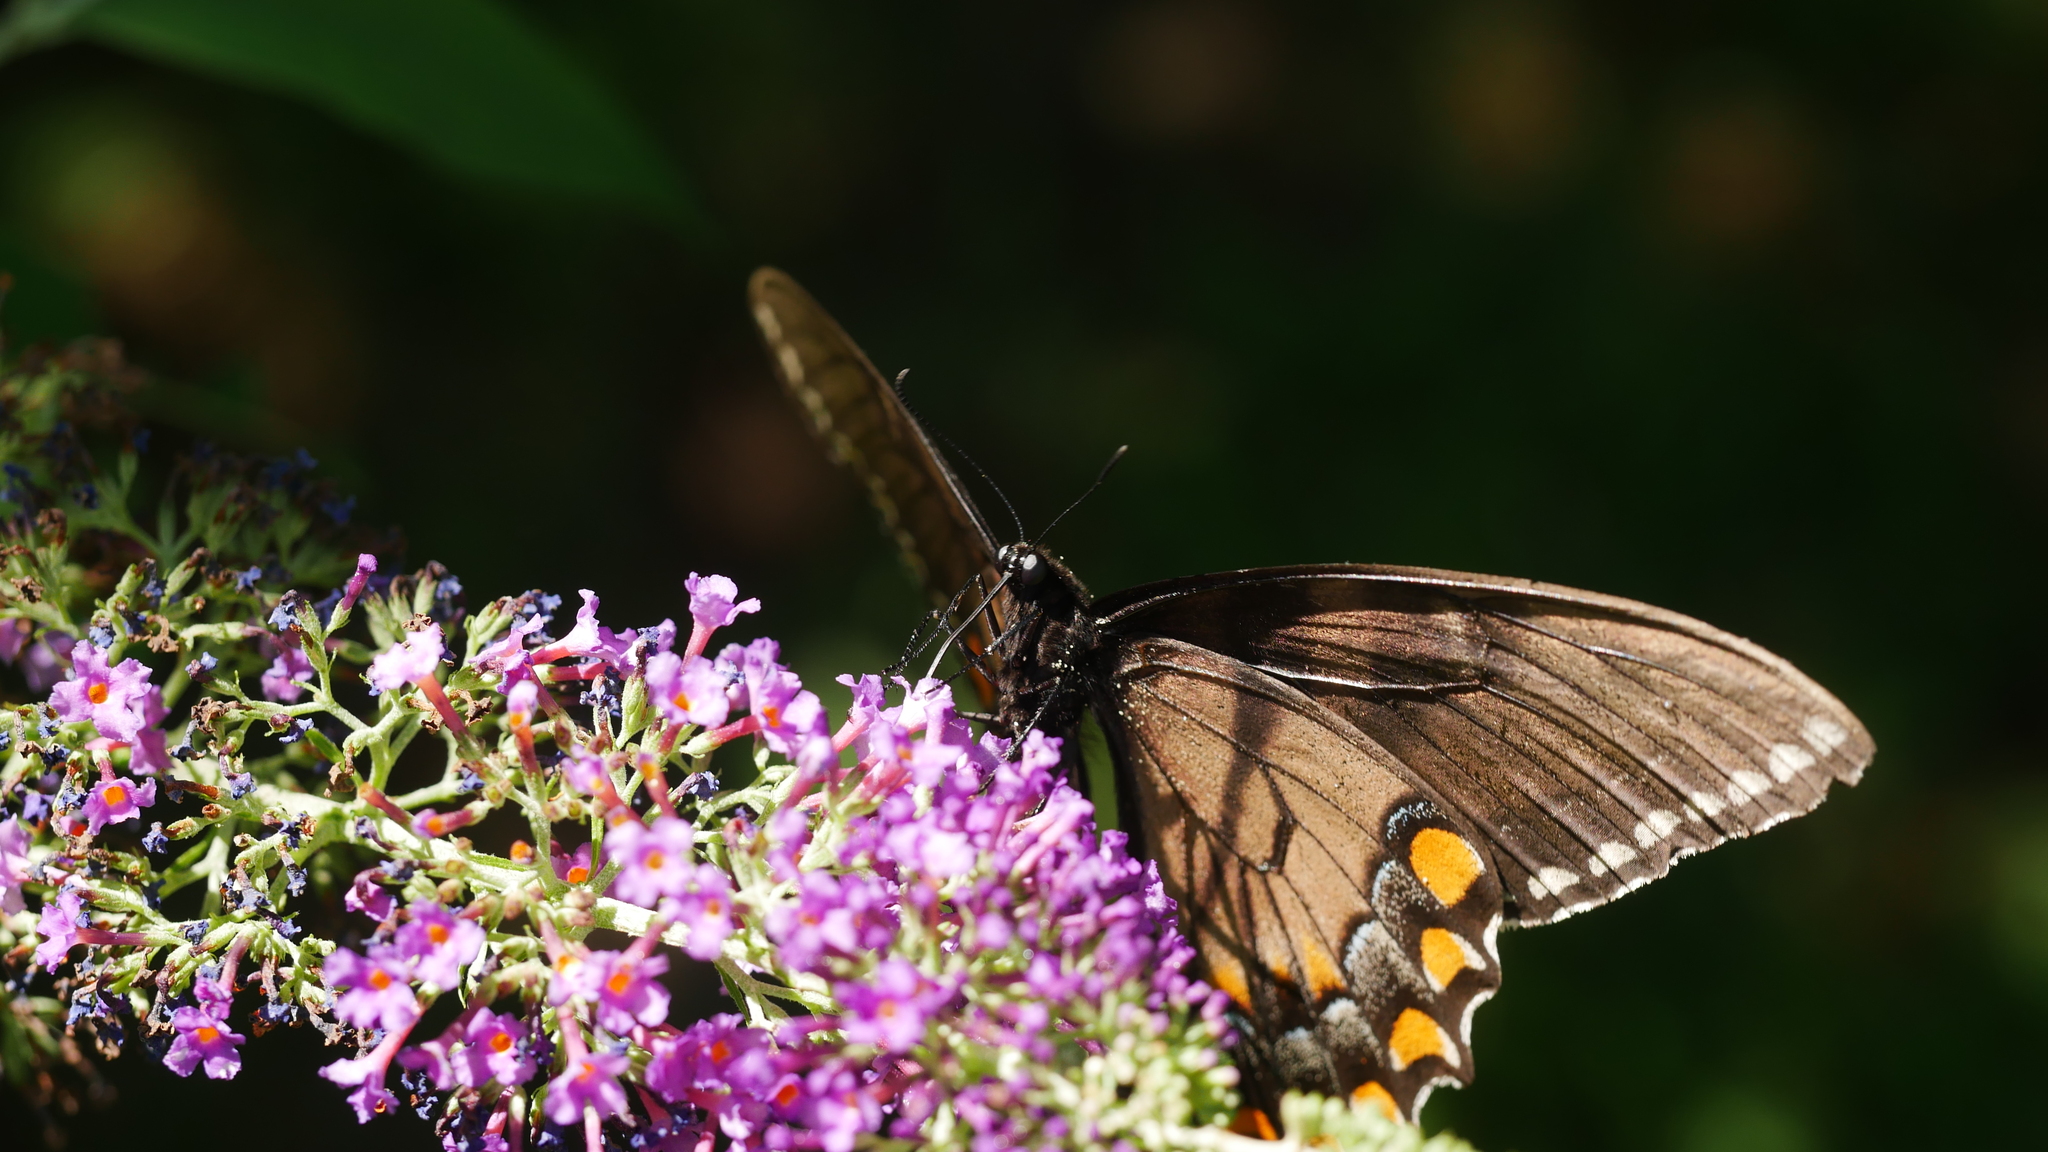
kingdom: Animalia
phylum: Arthropoda
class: Insecta
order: Lepidoptera
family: Papilionidae
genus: Papilio
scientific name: Papilio glaucus
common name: Tiger swallowtail
